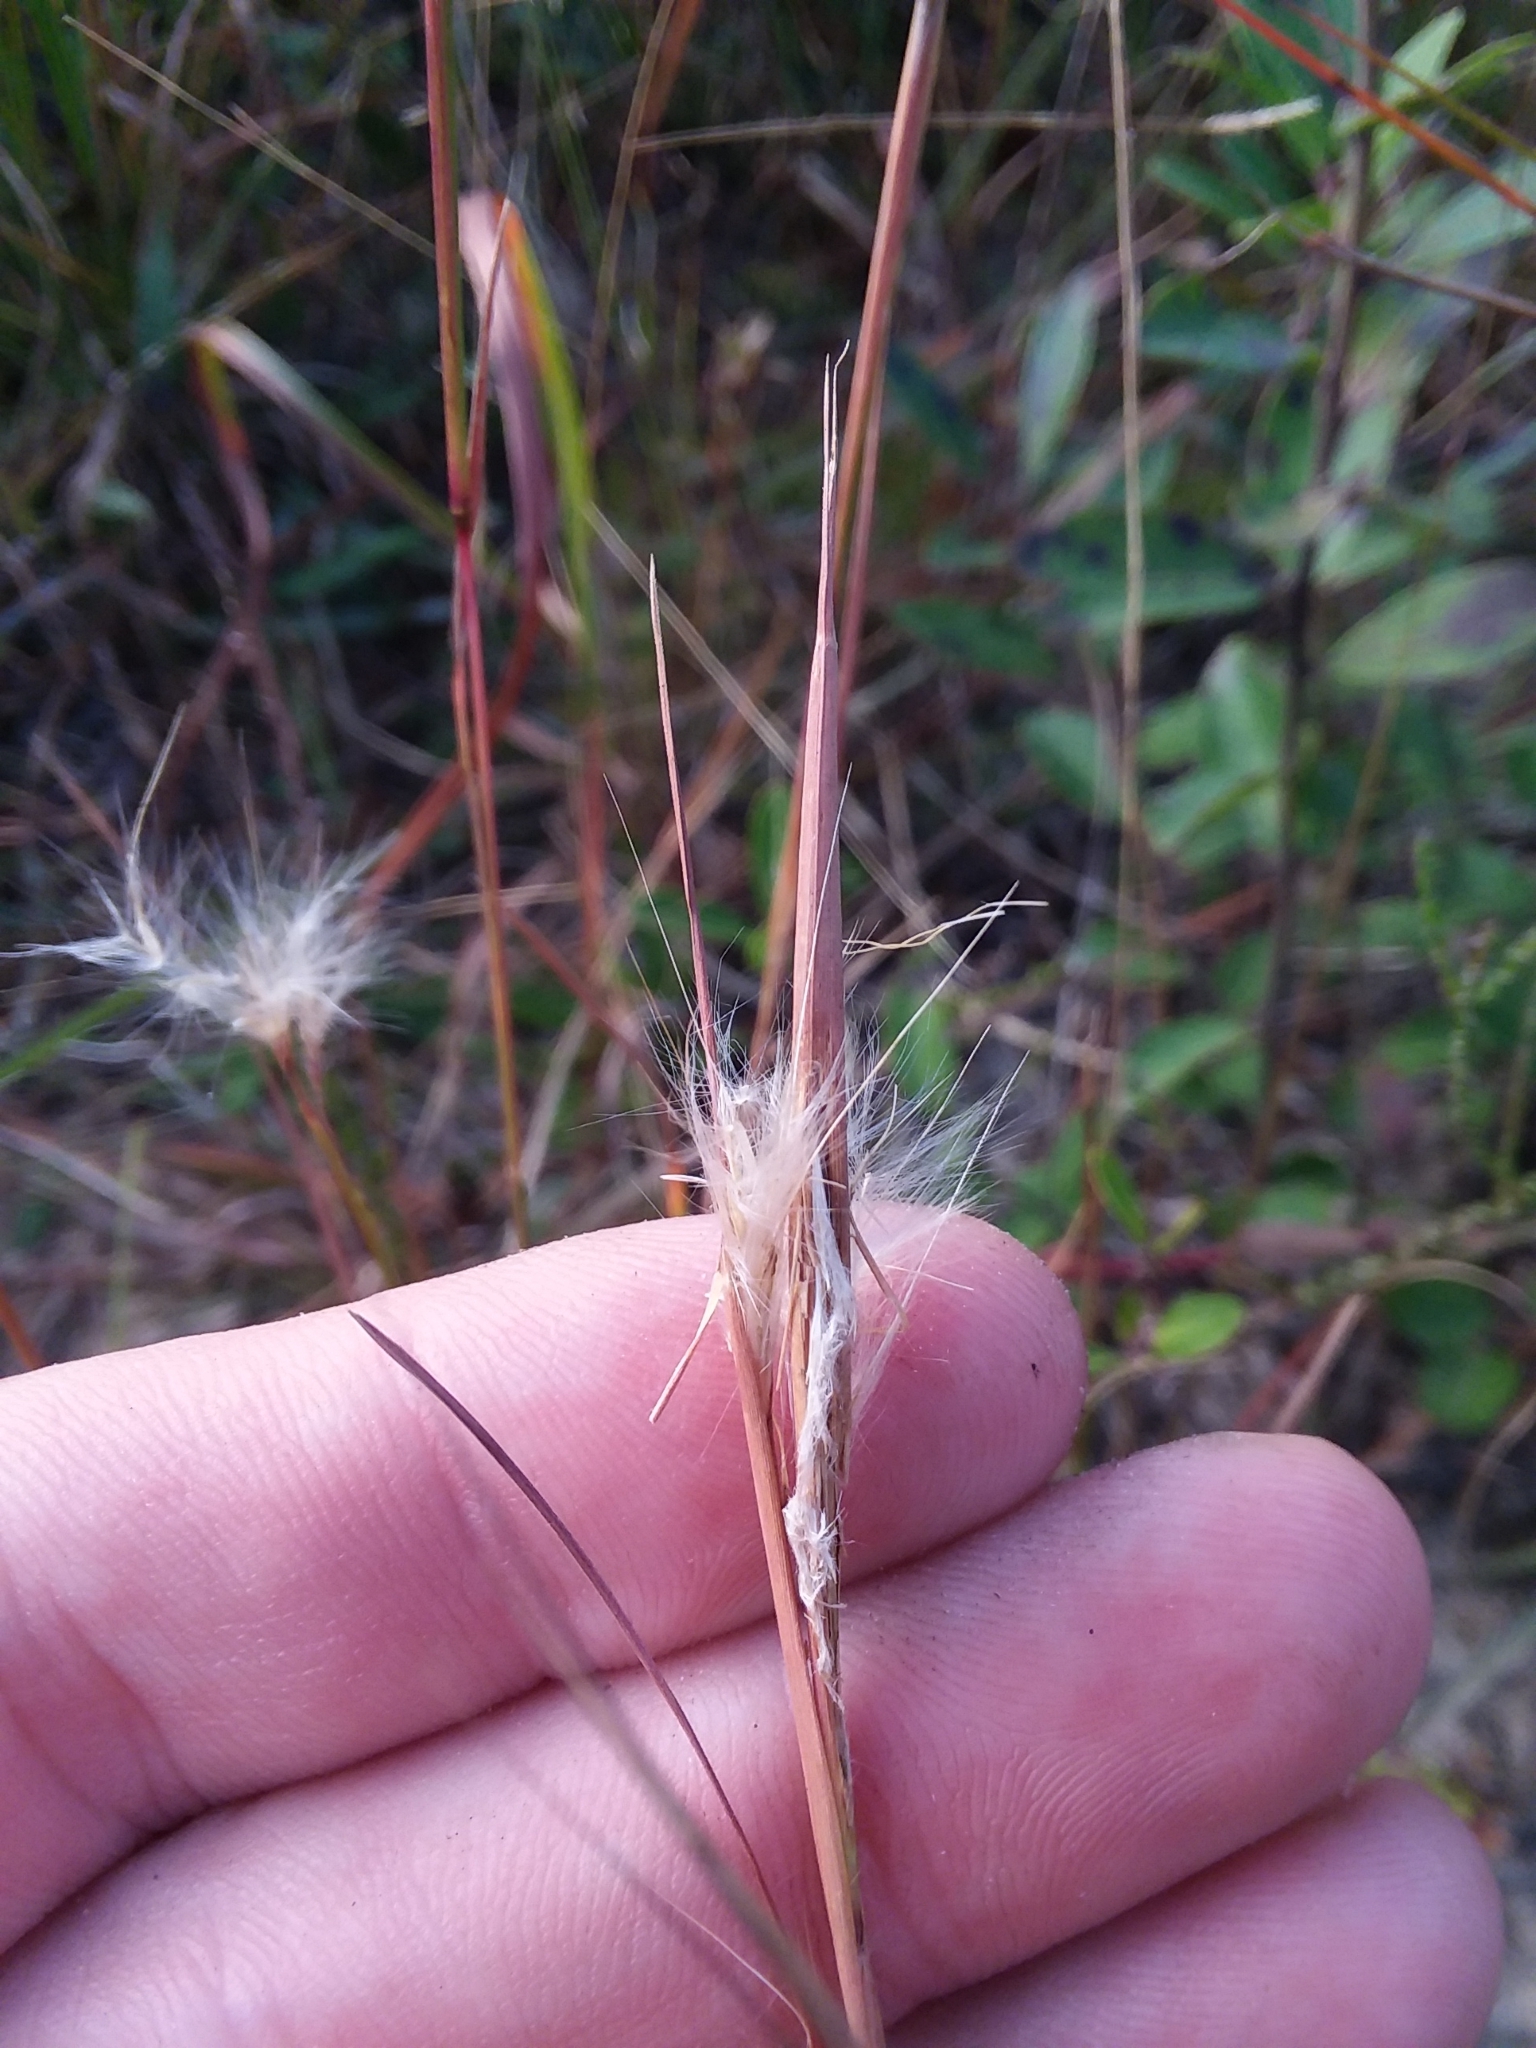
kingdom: Plantae
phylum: Tracheophyta
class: Liliopsida
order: Poales
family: Poaceae
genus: Andropogon
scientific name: Andropogon tracyi
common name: Tracy's bluestem
